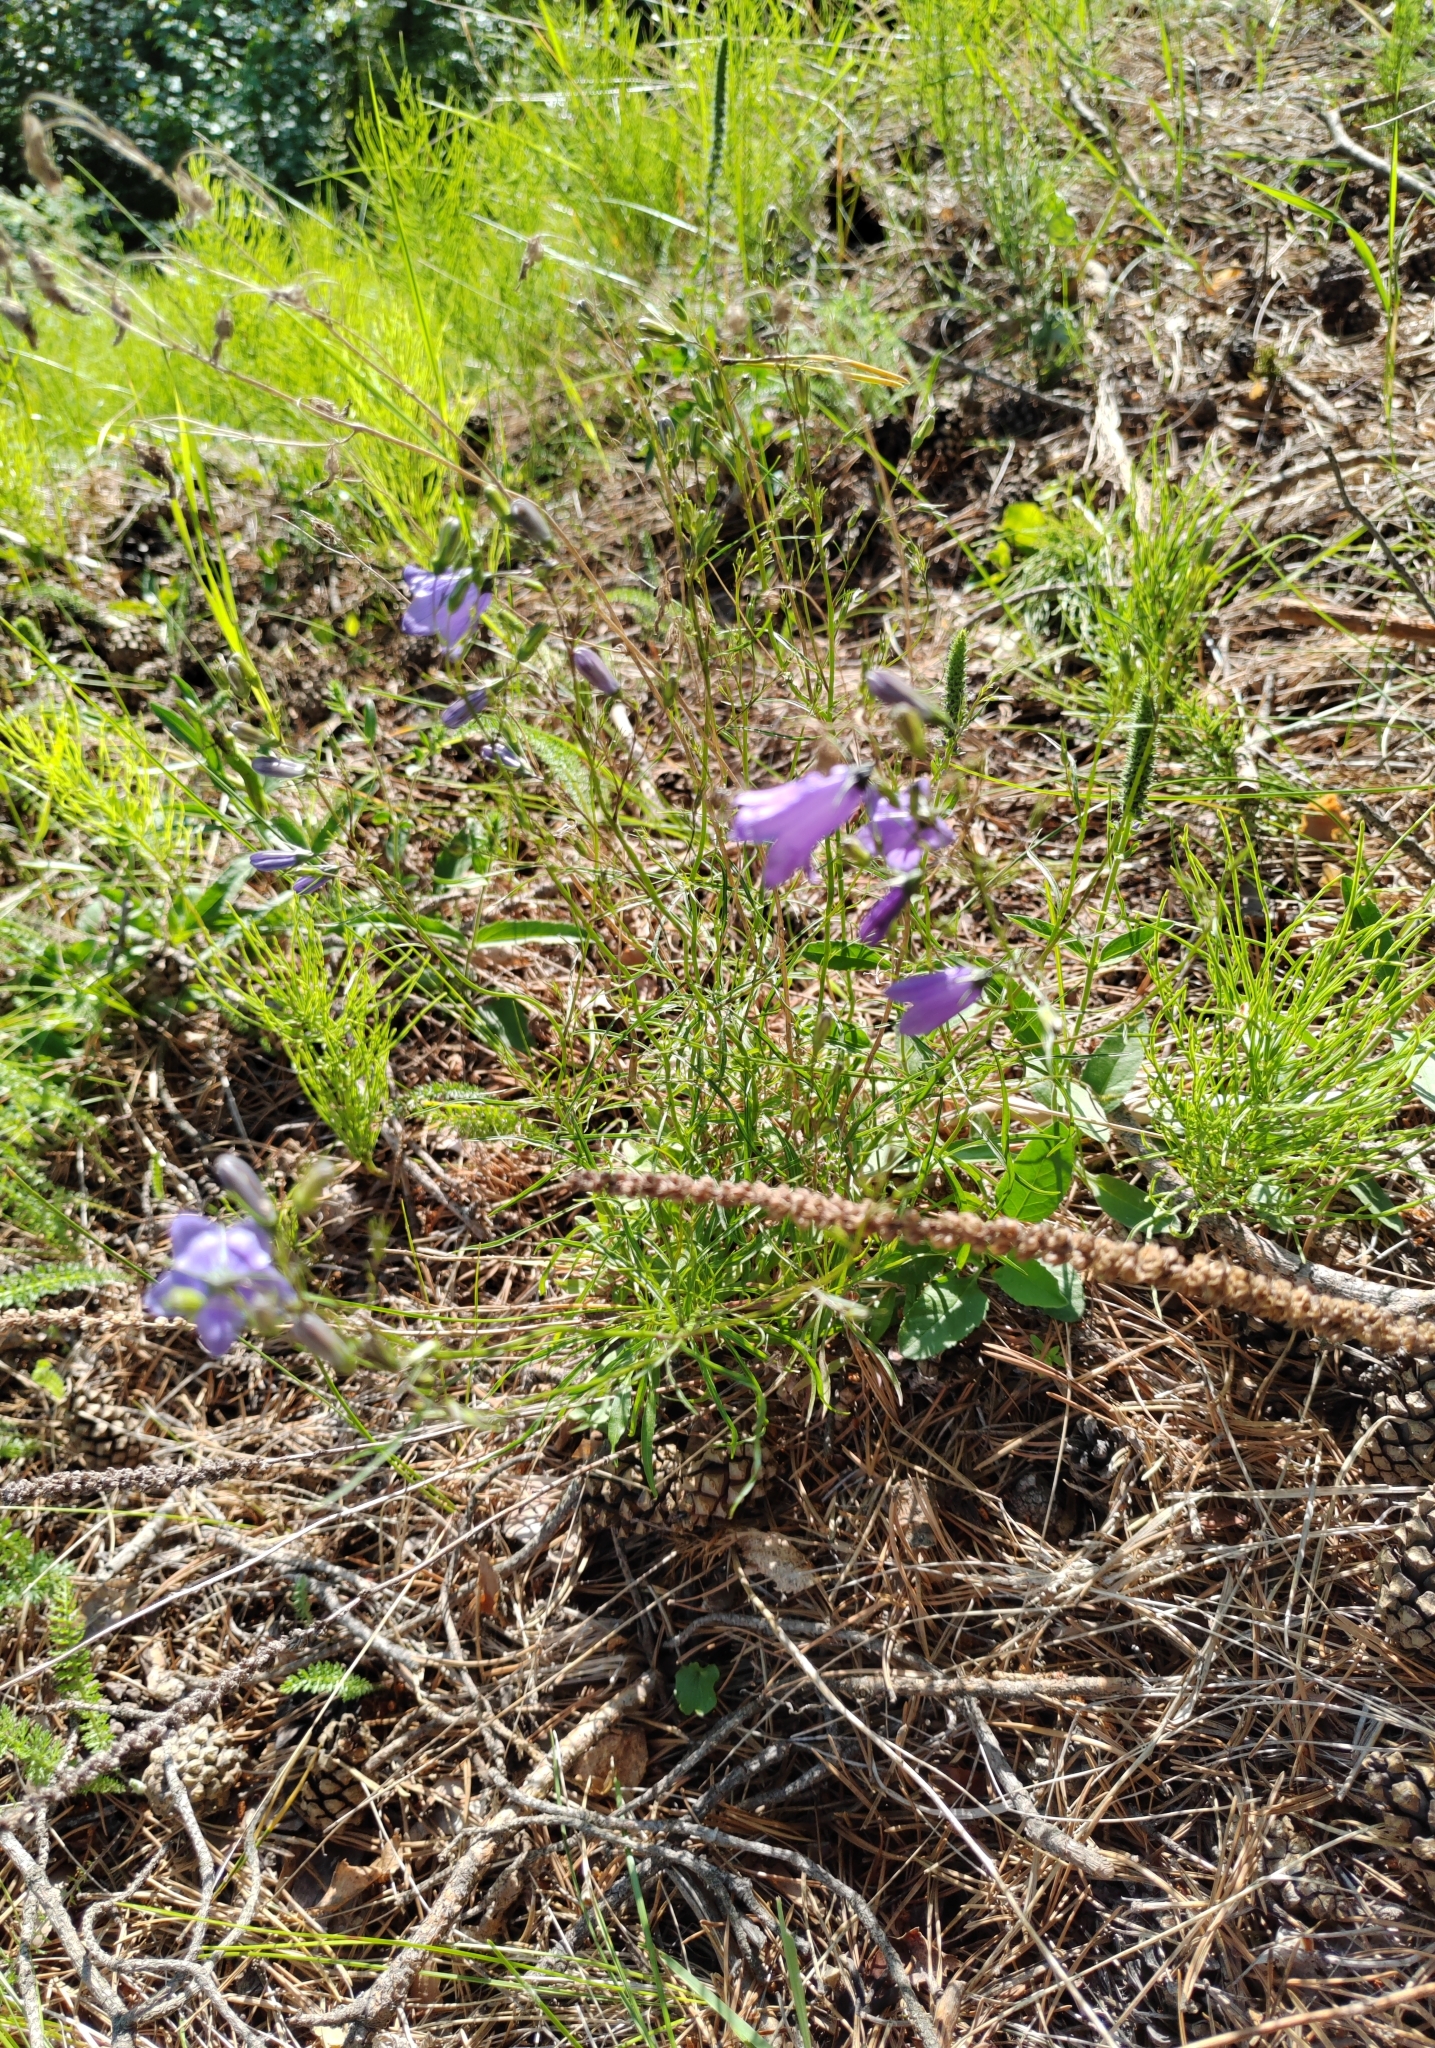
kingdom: Plantae
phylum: Tracheophyta
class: Magnoliopsida
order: Asterales
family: Campanulaceae
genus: Campanula
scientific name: Campanula rotundifolia
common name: Harebell
